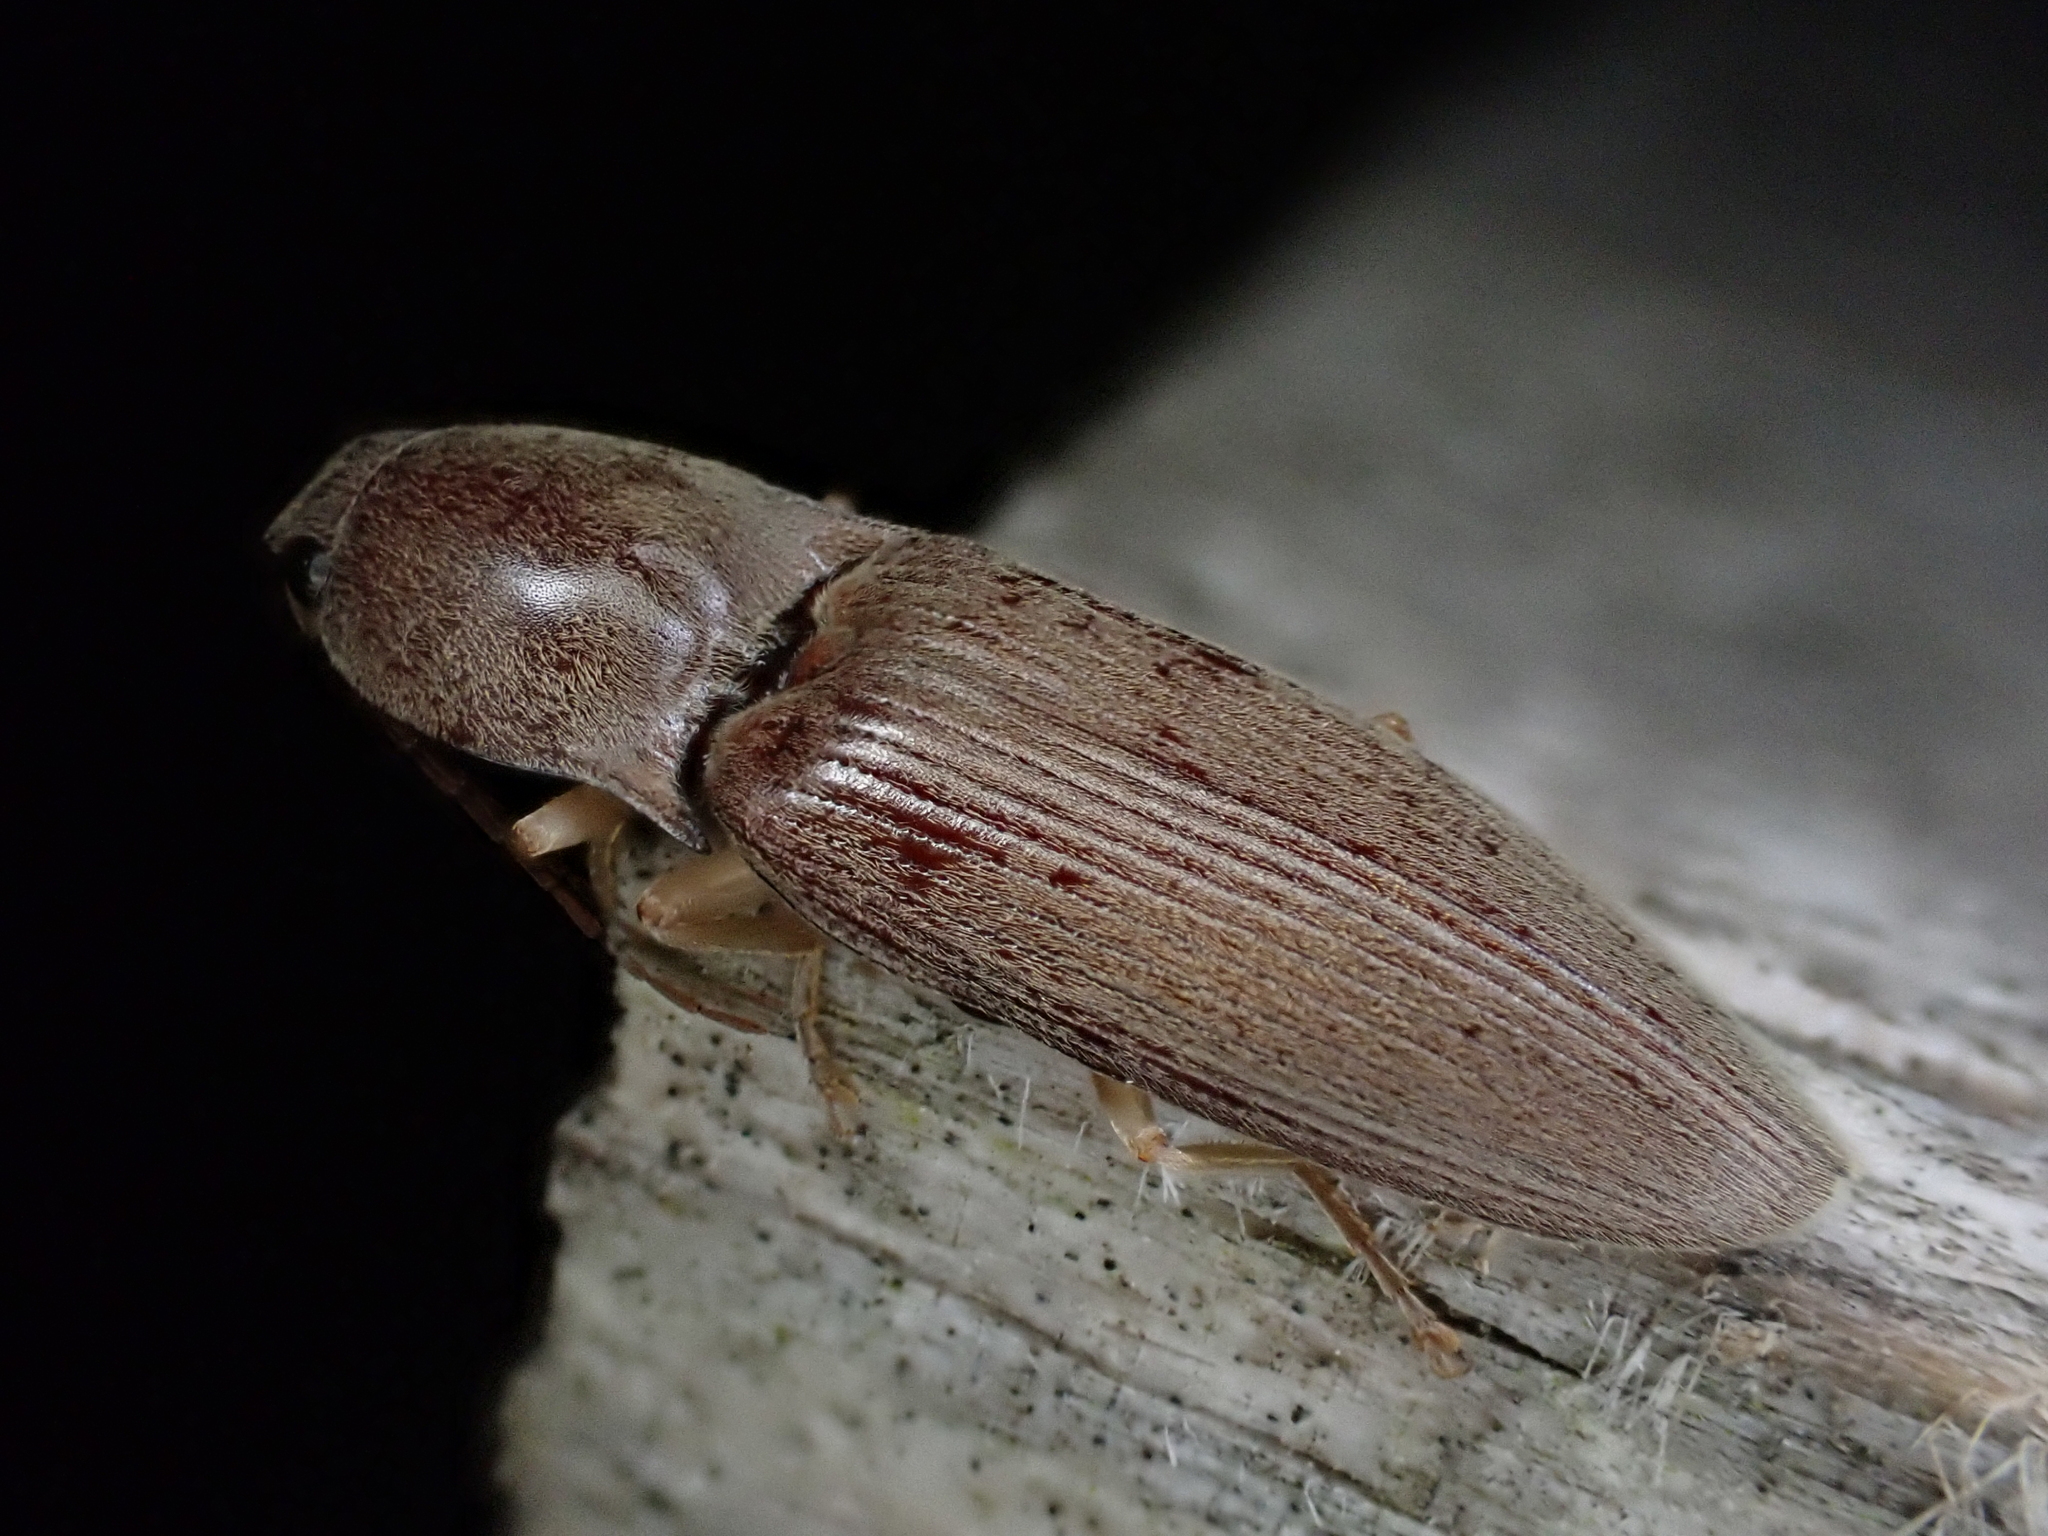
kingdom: Animalia
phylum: Arthropoda
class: Insecta
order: Coleoptera
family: Elateridae
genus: Monocrepidius
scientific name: Monocrepidius lividus
